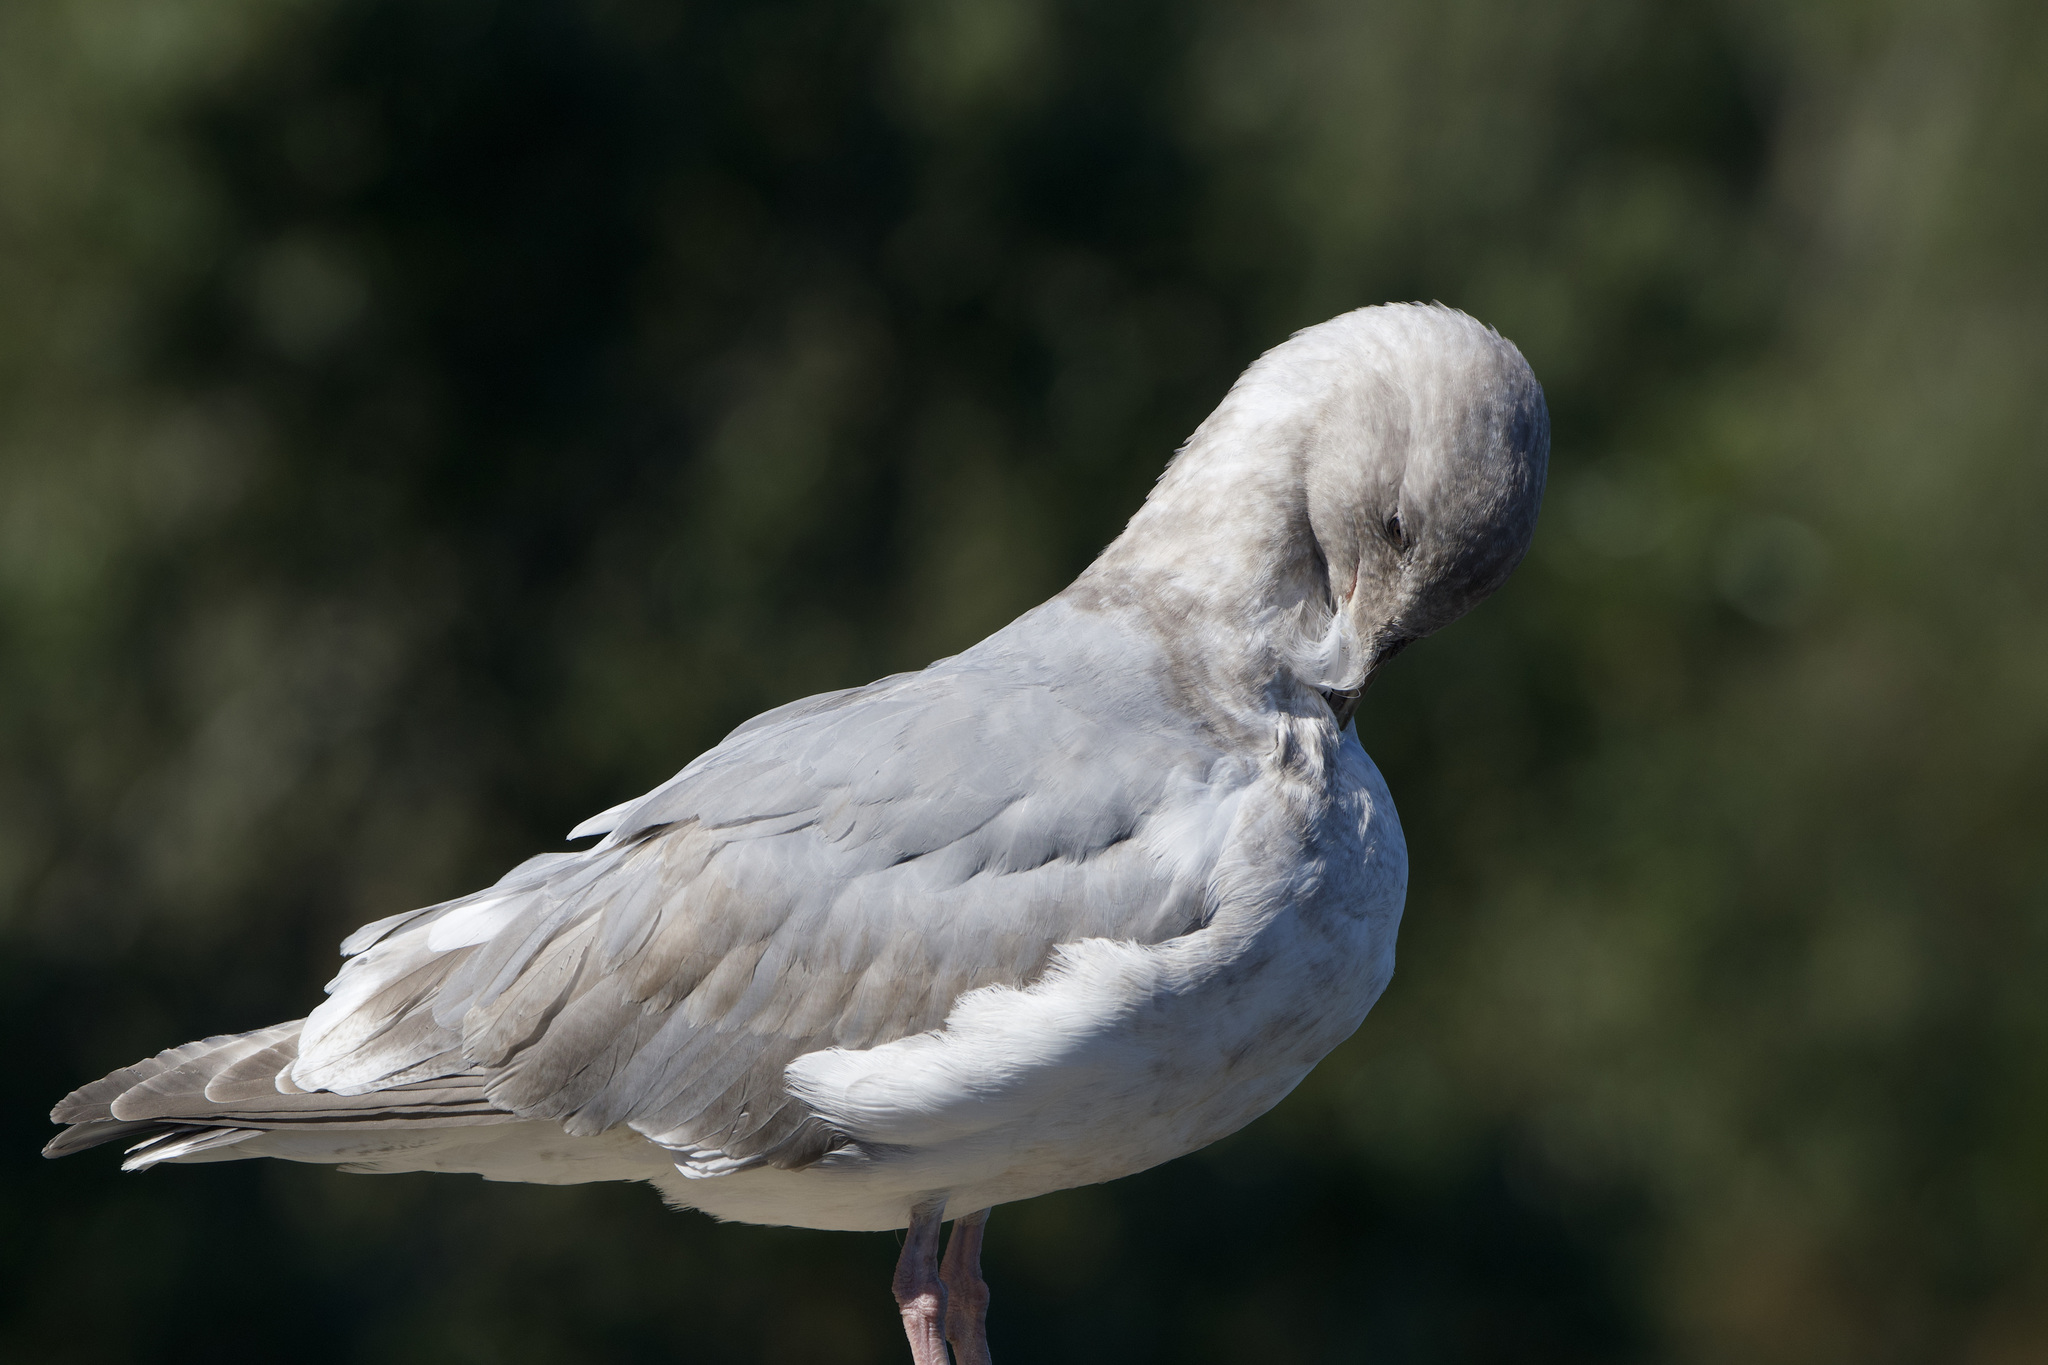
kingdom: Animalia
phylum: Chordata
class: Aves
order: Charadriiformes
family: Laridae
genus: Larus
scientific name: Larus
